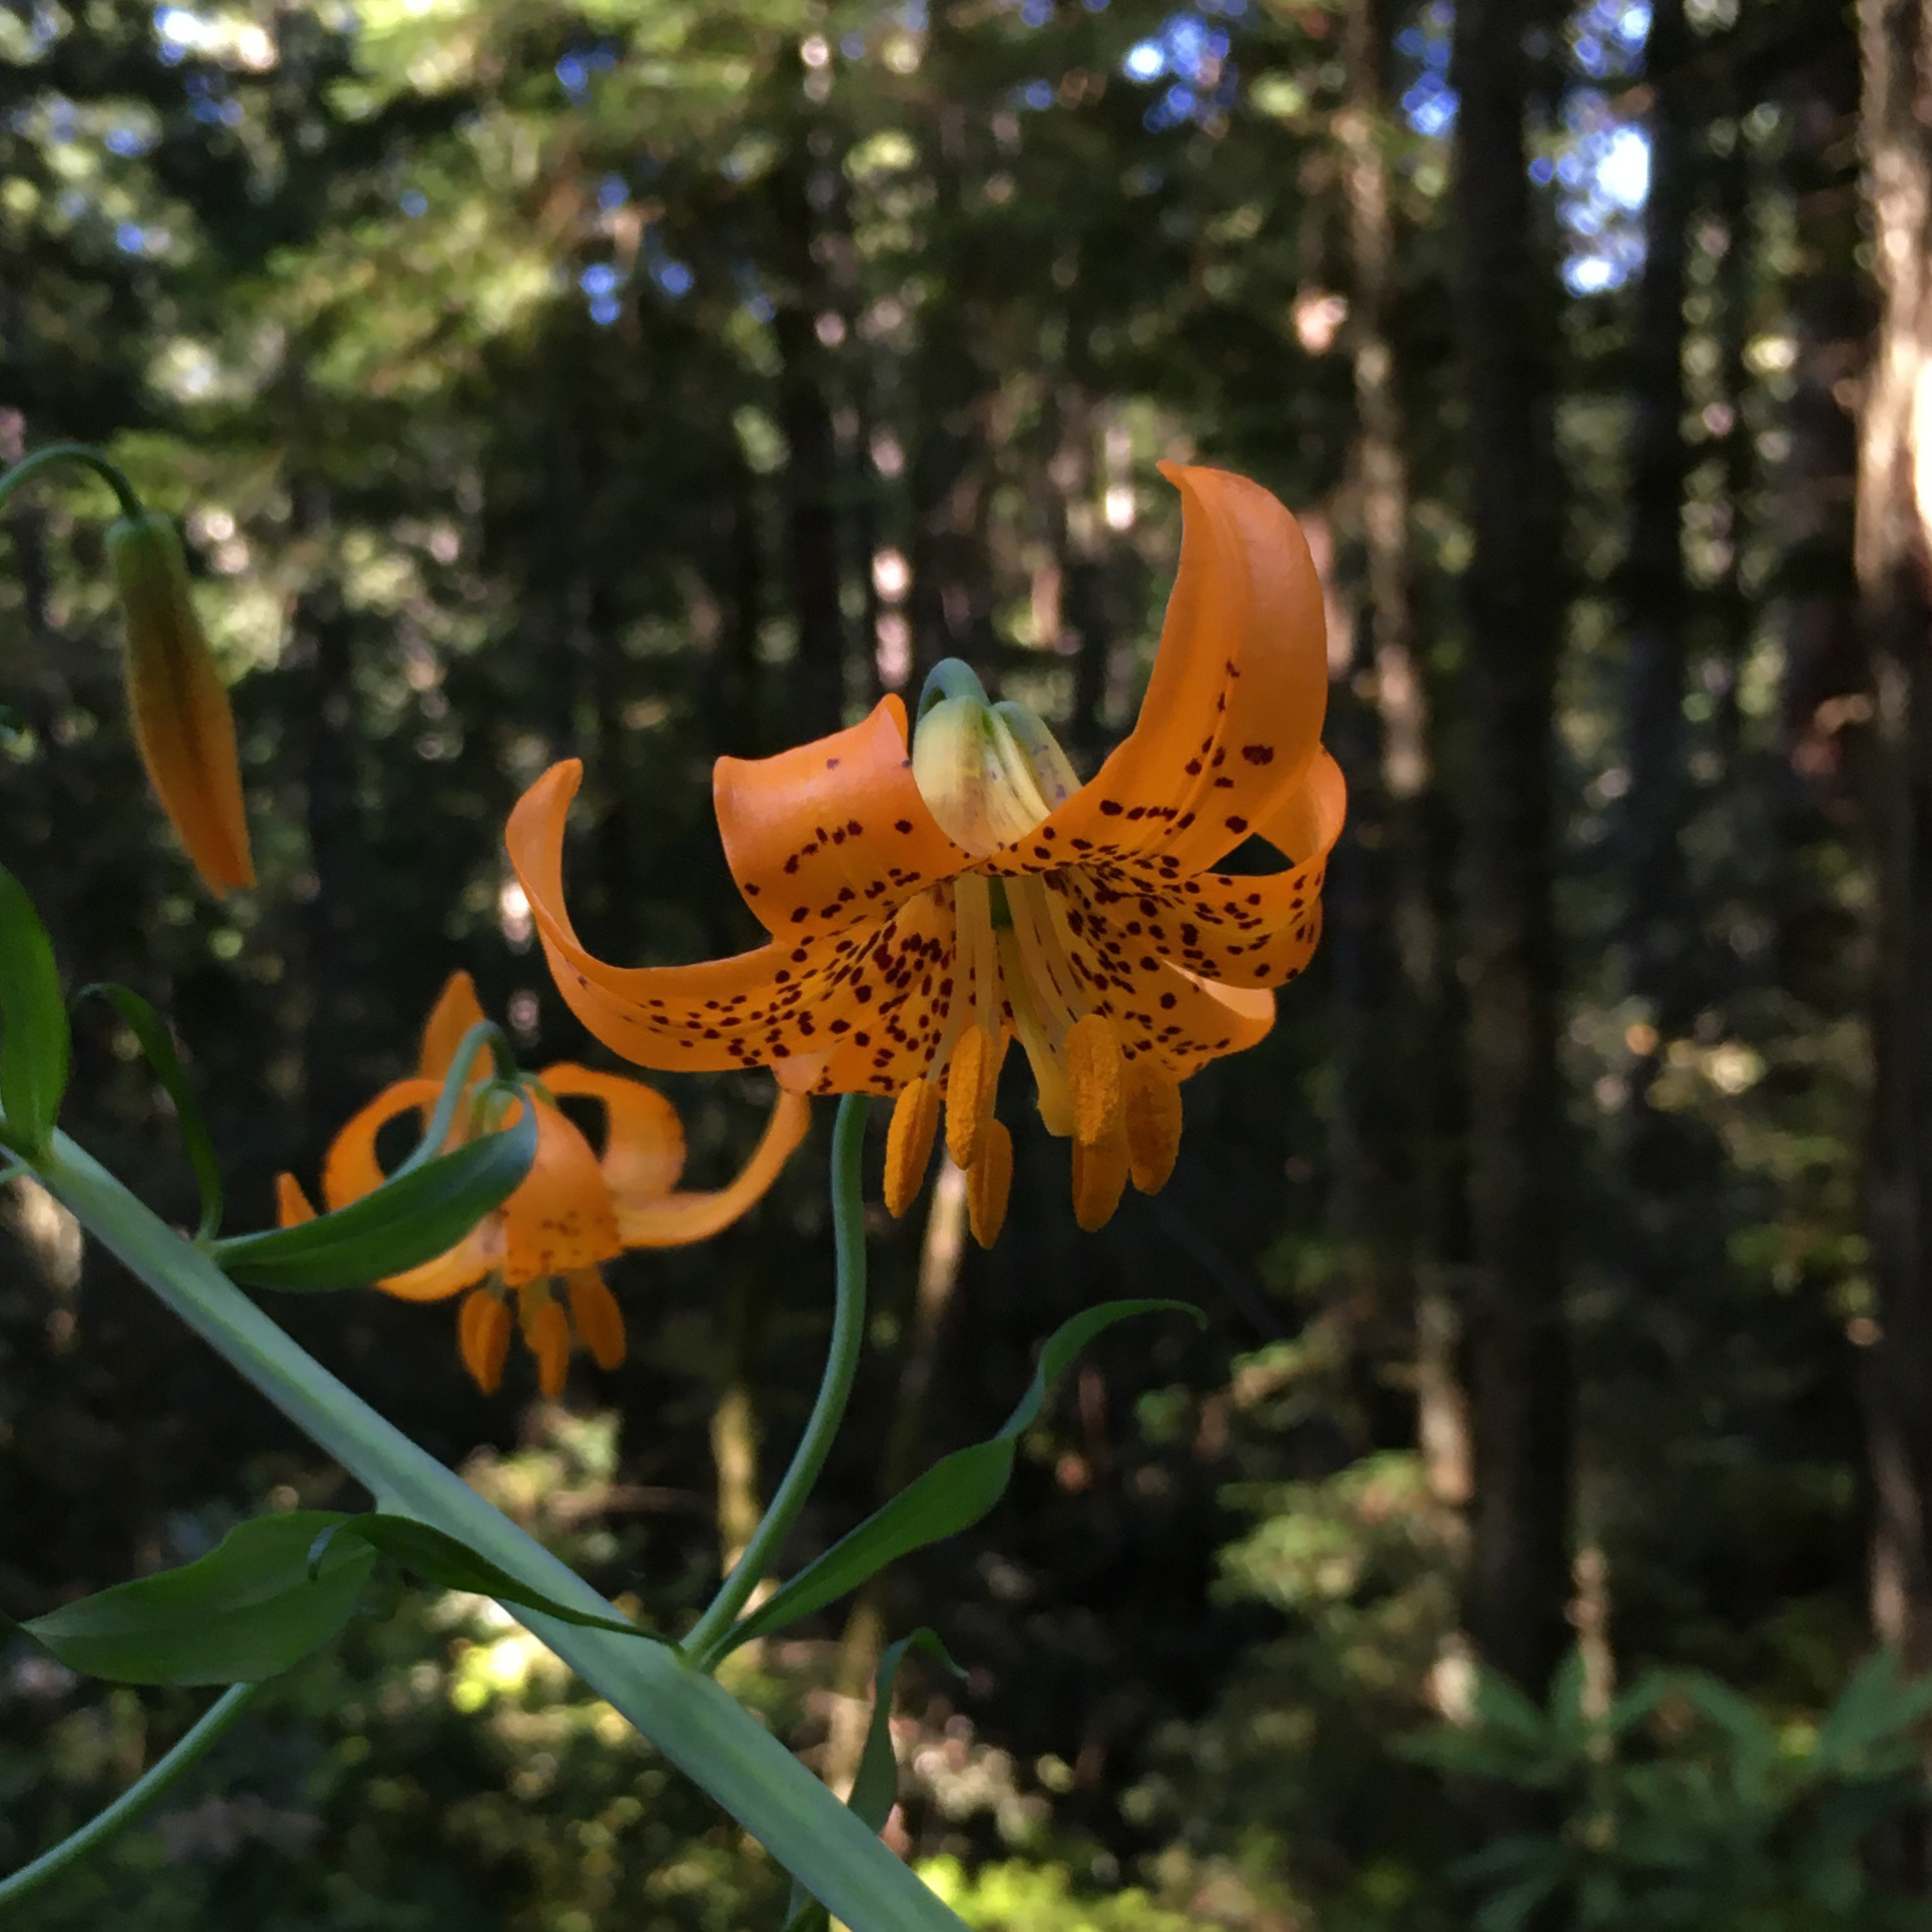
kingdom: Plantae
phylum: Tracheophyta
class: Liliopsida
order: Liliales
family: Liliaceae
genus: Lilium
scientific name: Lilium columbianum
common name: Columbia lily
